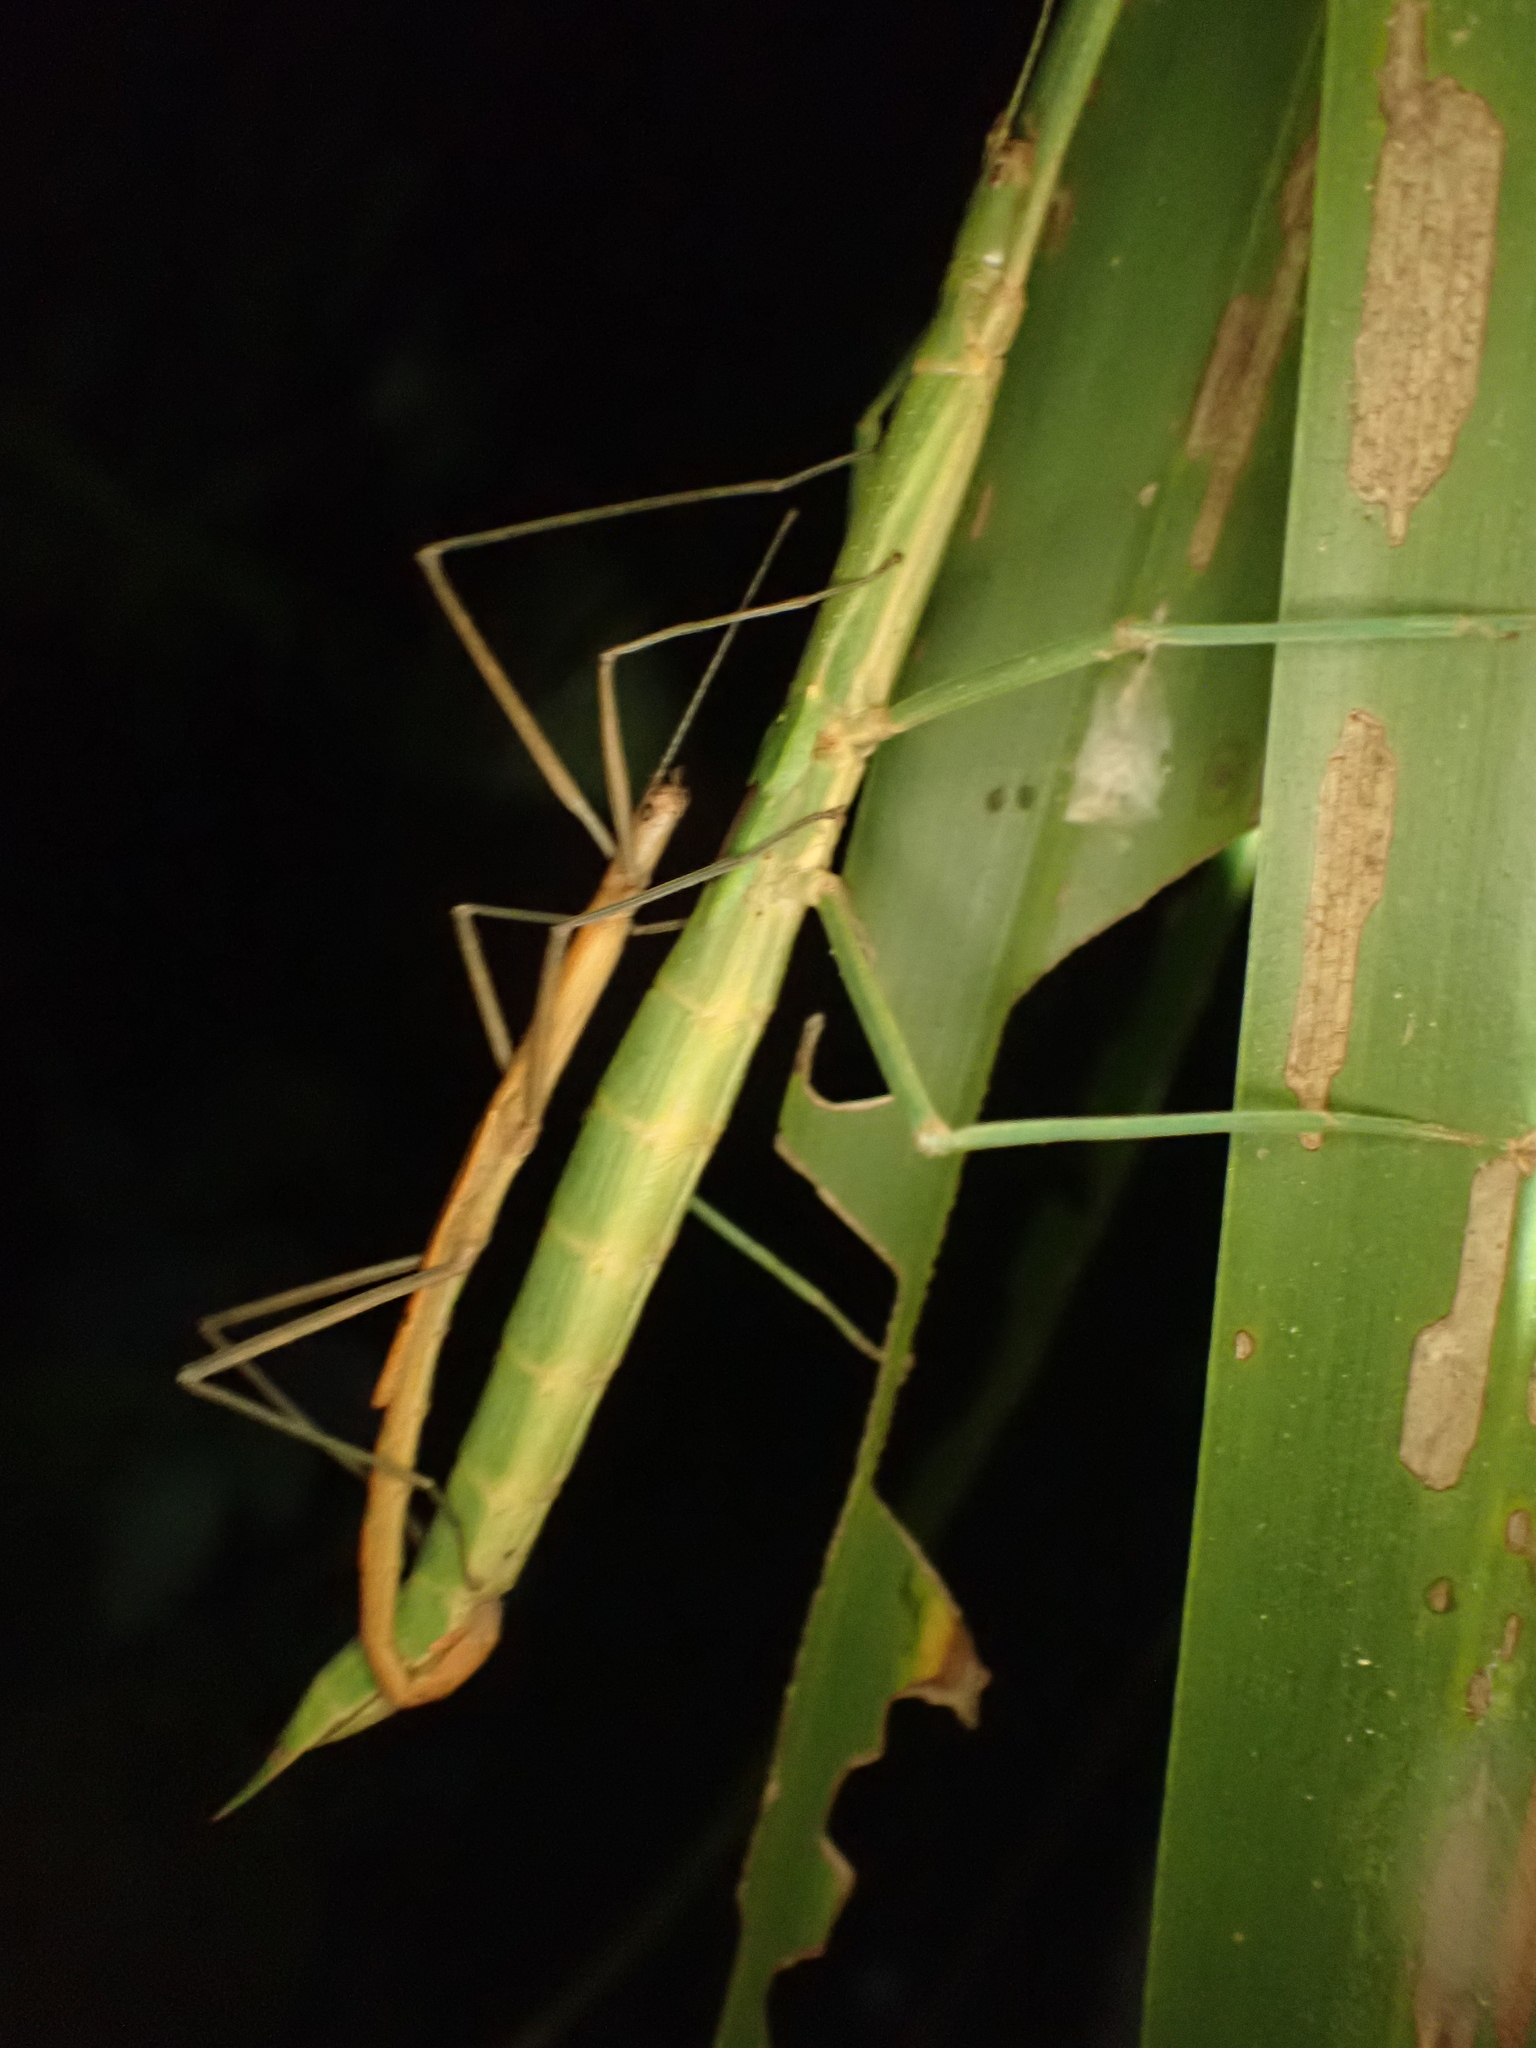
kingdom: Animalia
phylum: Arthropoda
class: Insecta
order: Phasmida
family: Phasmatidae
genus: Graeffea
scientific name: Graeffea crouanii
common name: Coconut stick insect
